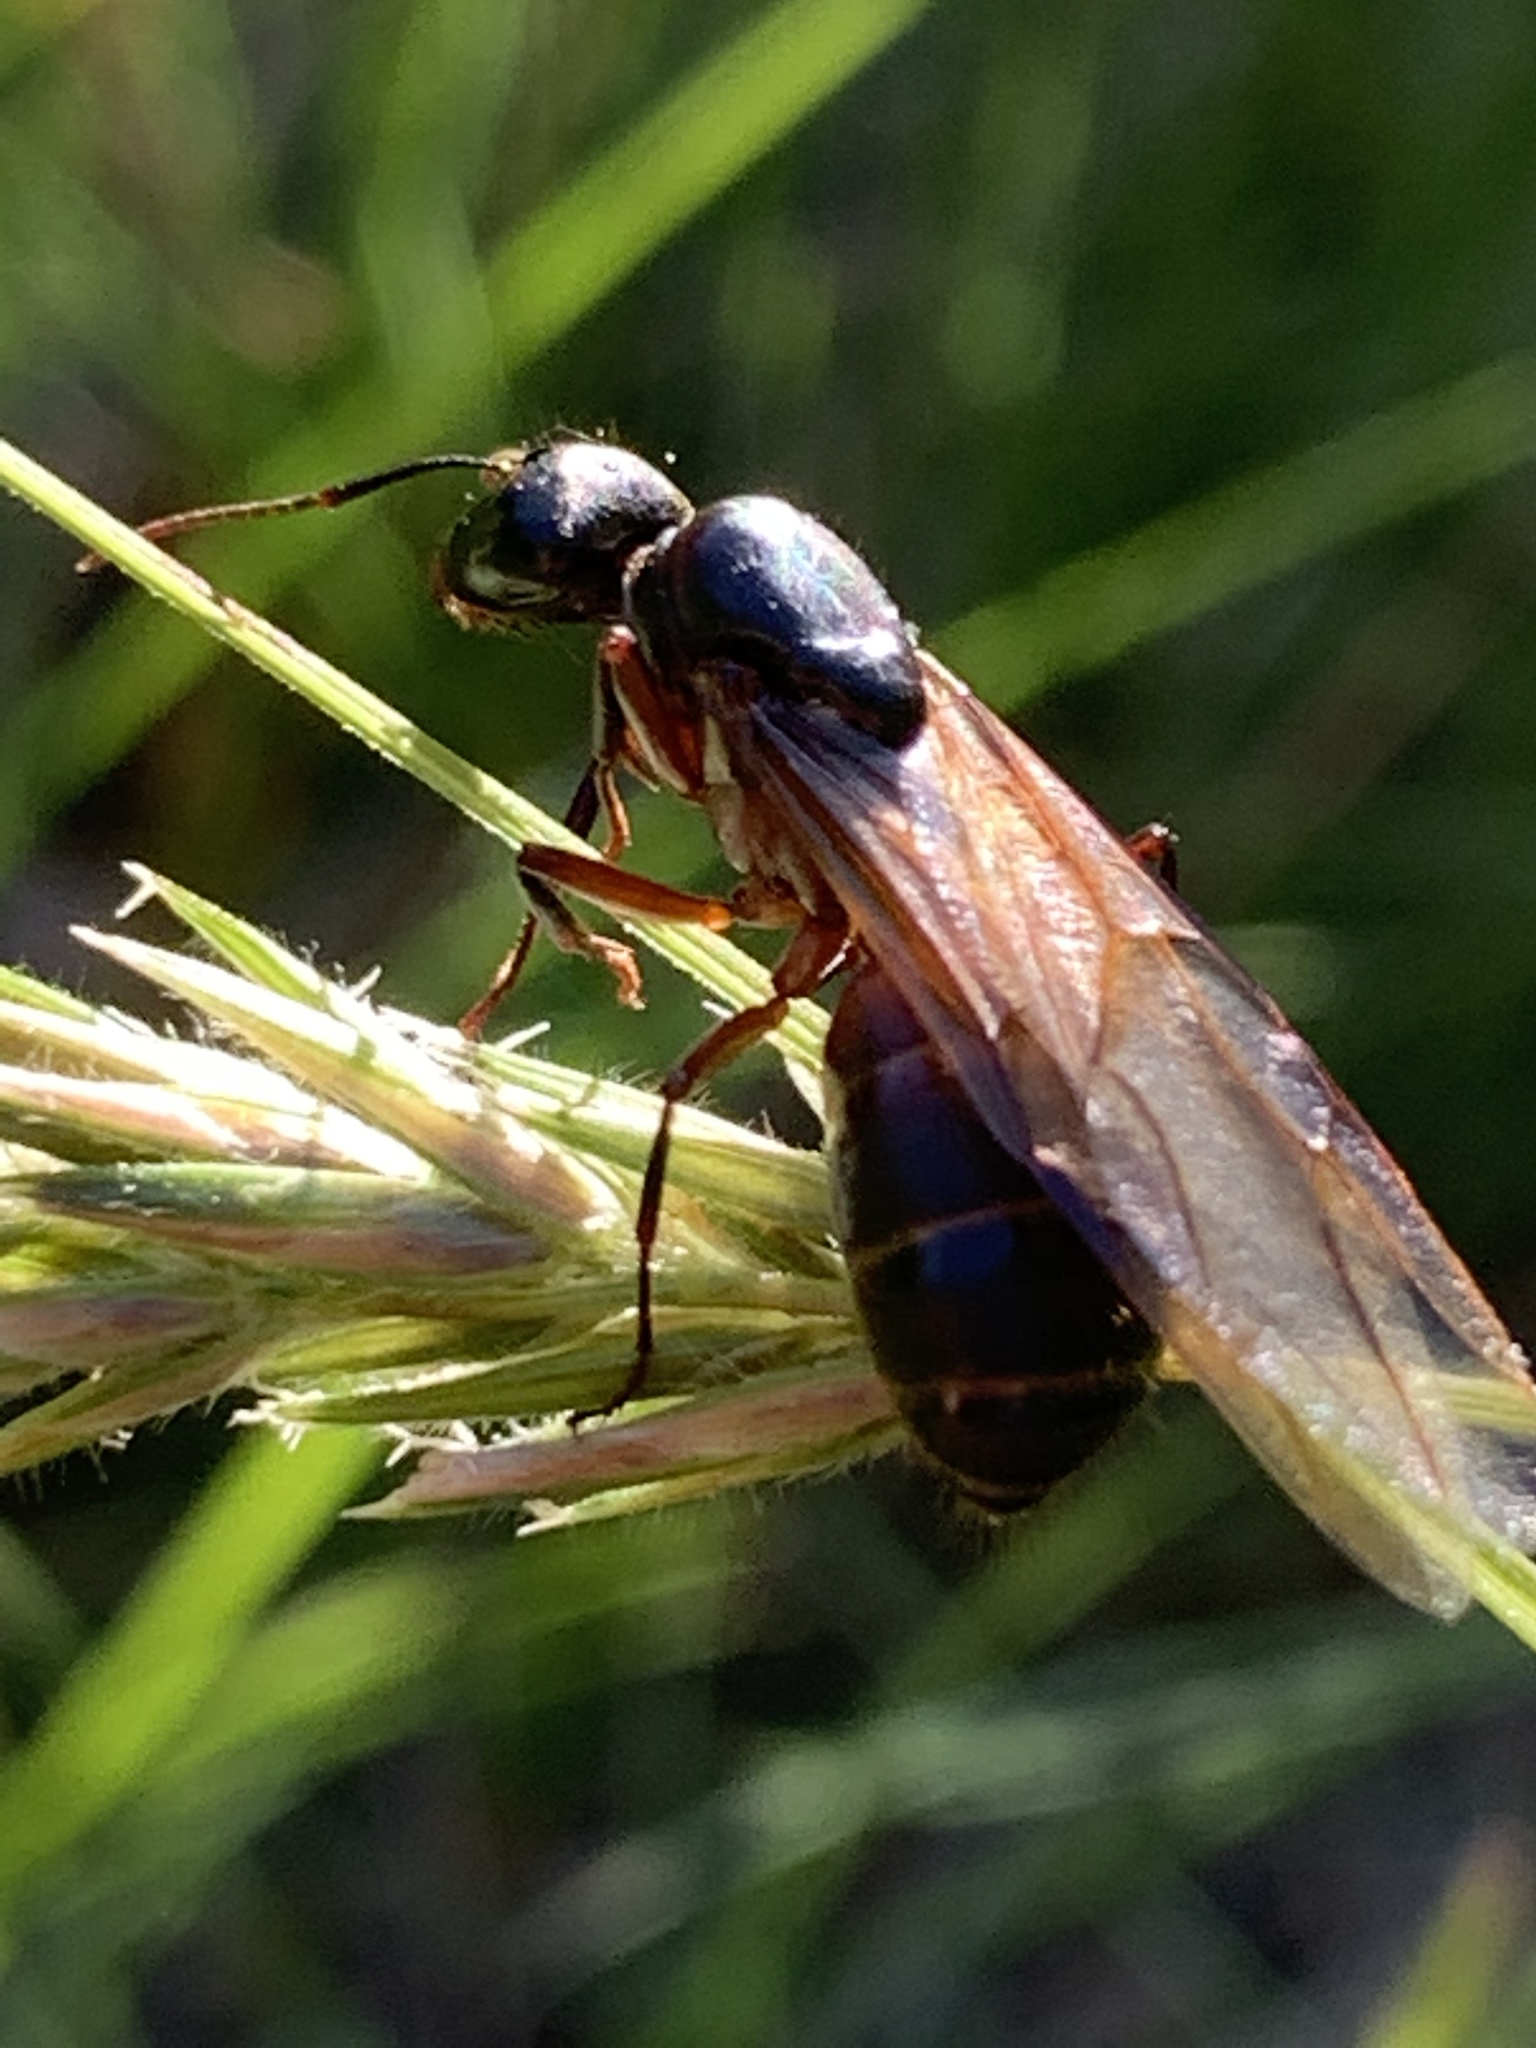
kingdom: Animalia
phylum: Arthropoda
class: Insecta
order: Hymenoptera
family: Formicidae
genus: Camponotus
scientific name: Camponotus chromaiodes
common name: Red carpenter ant
